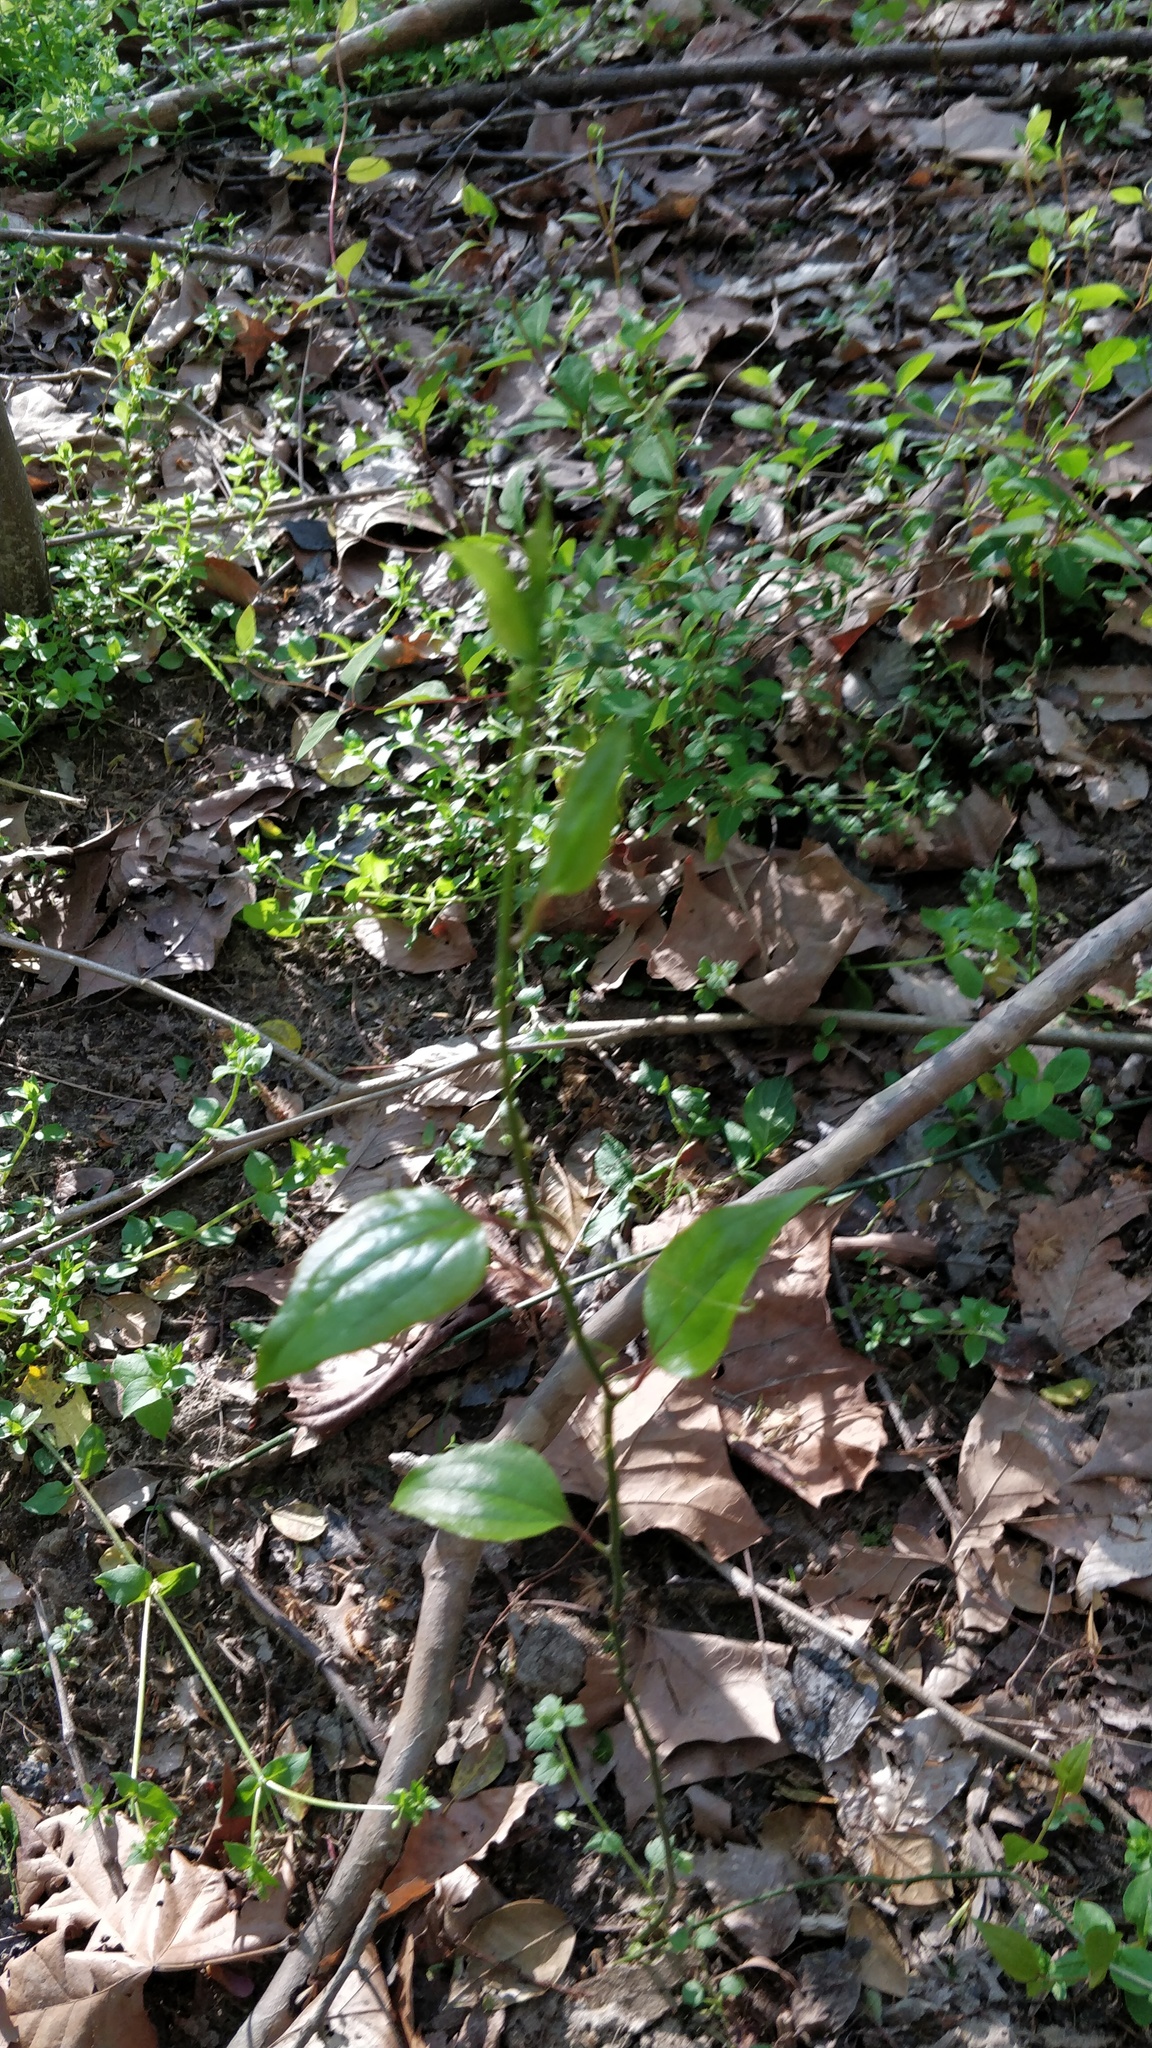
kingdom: Plantae
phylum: Tracheophyta
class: Liliopsida
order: Liliales
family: Smilacaceae
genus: Smilax
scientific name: Smilax tamnoides
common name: Hellfetter
